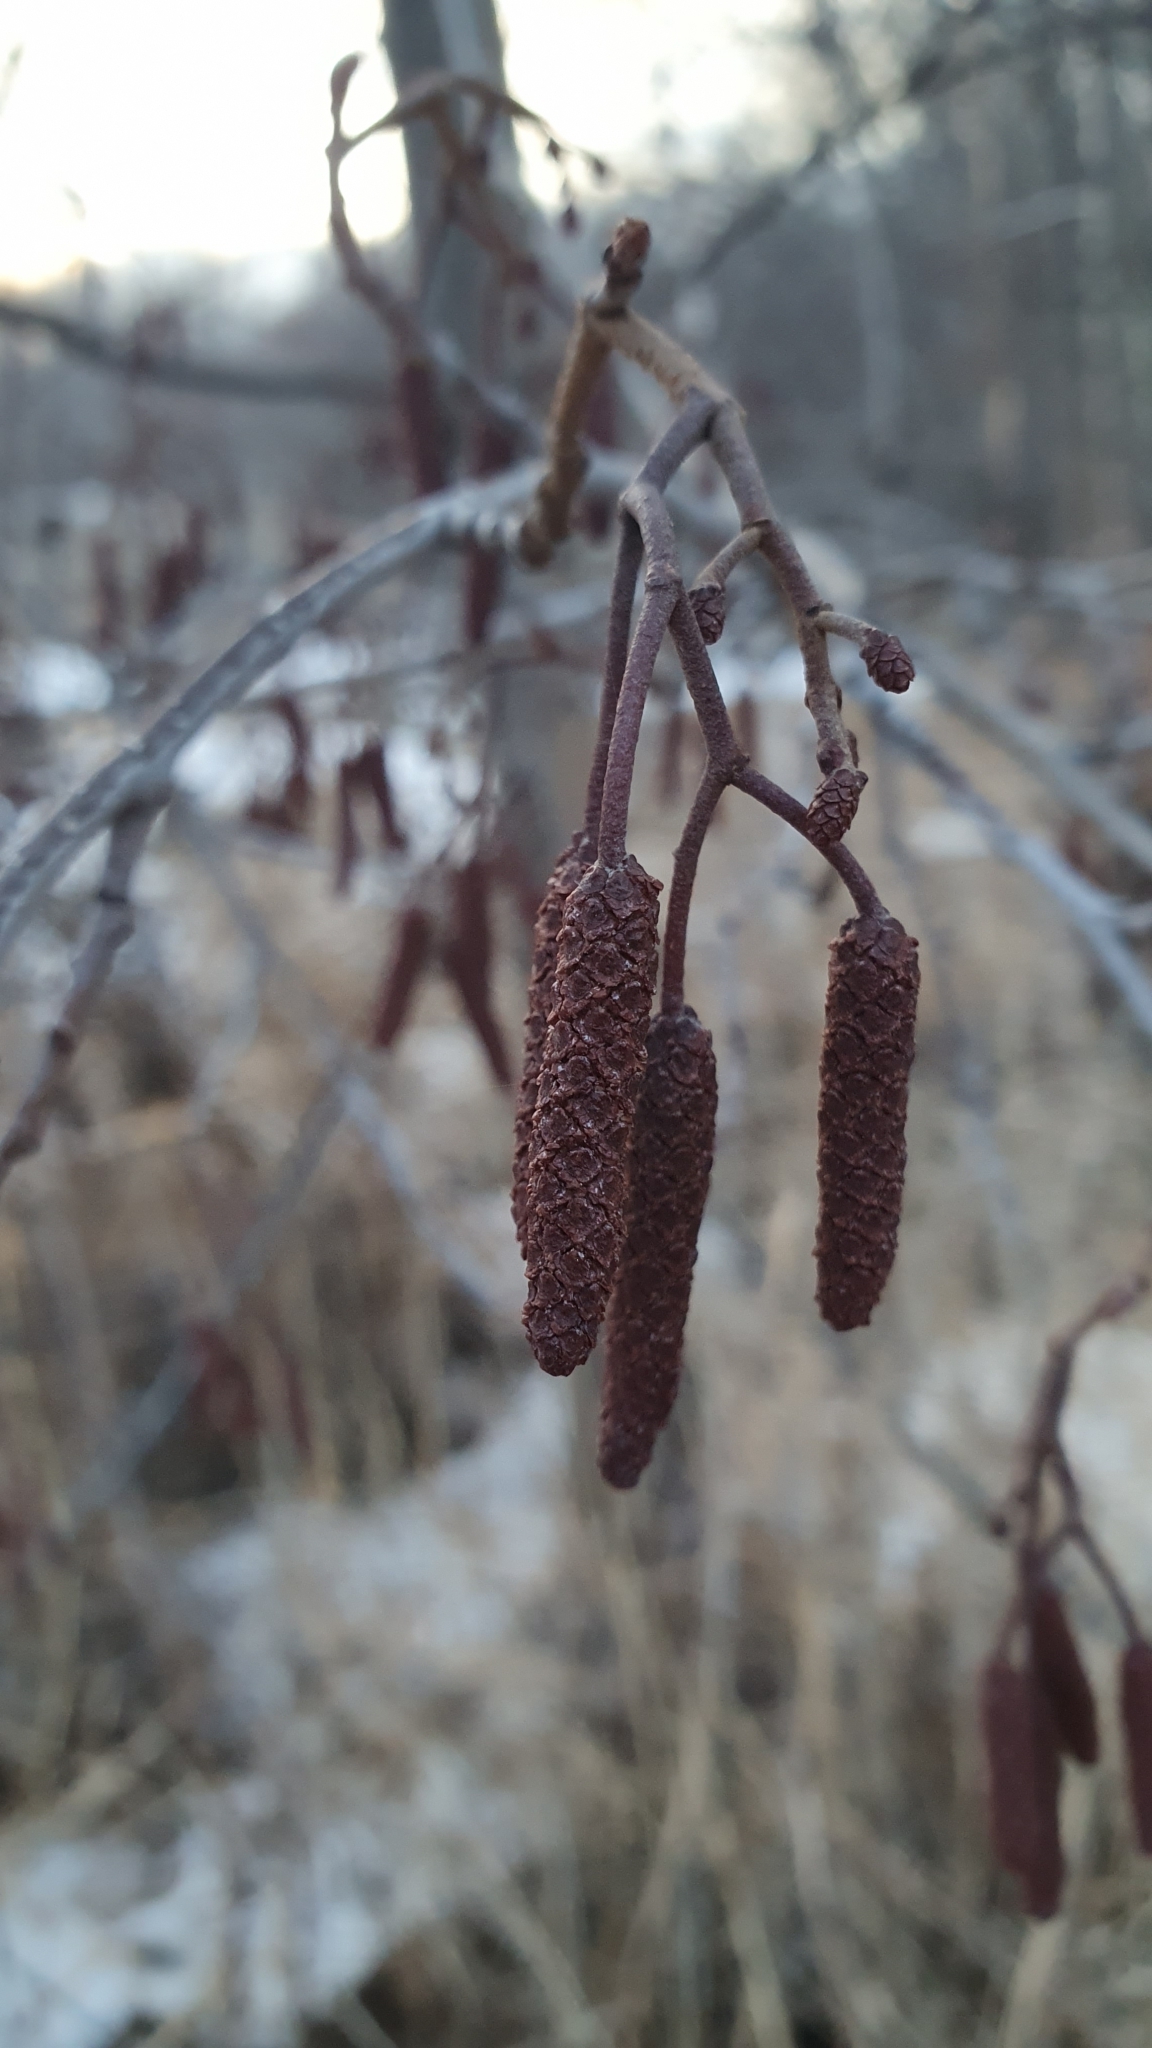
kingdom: Plantae
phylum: Tracheophyta
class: Magnoliopsida
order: Fagales
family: Betulaceae
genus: Alnus
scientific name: Alnus glutinosa
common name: Black alder
